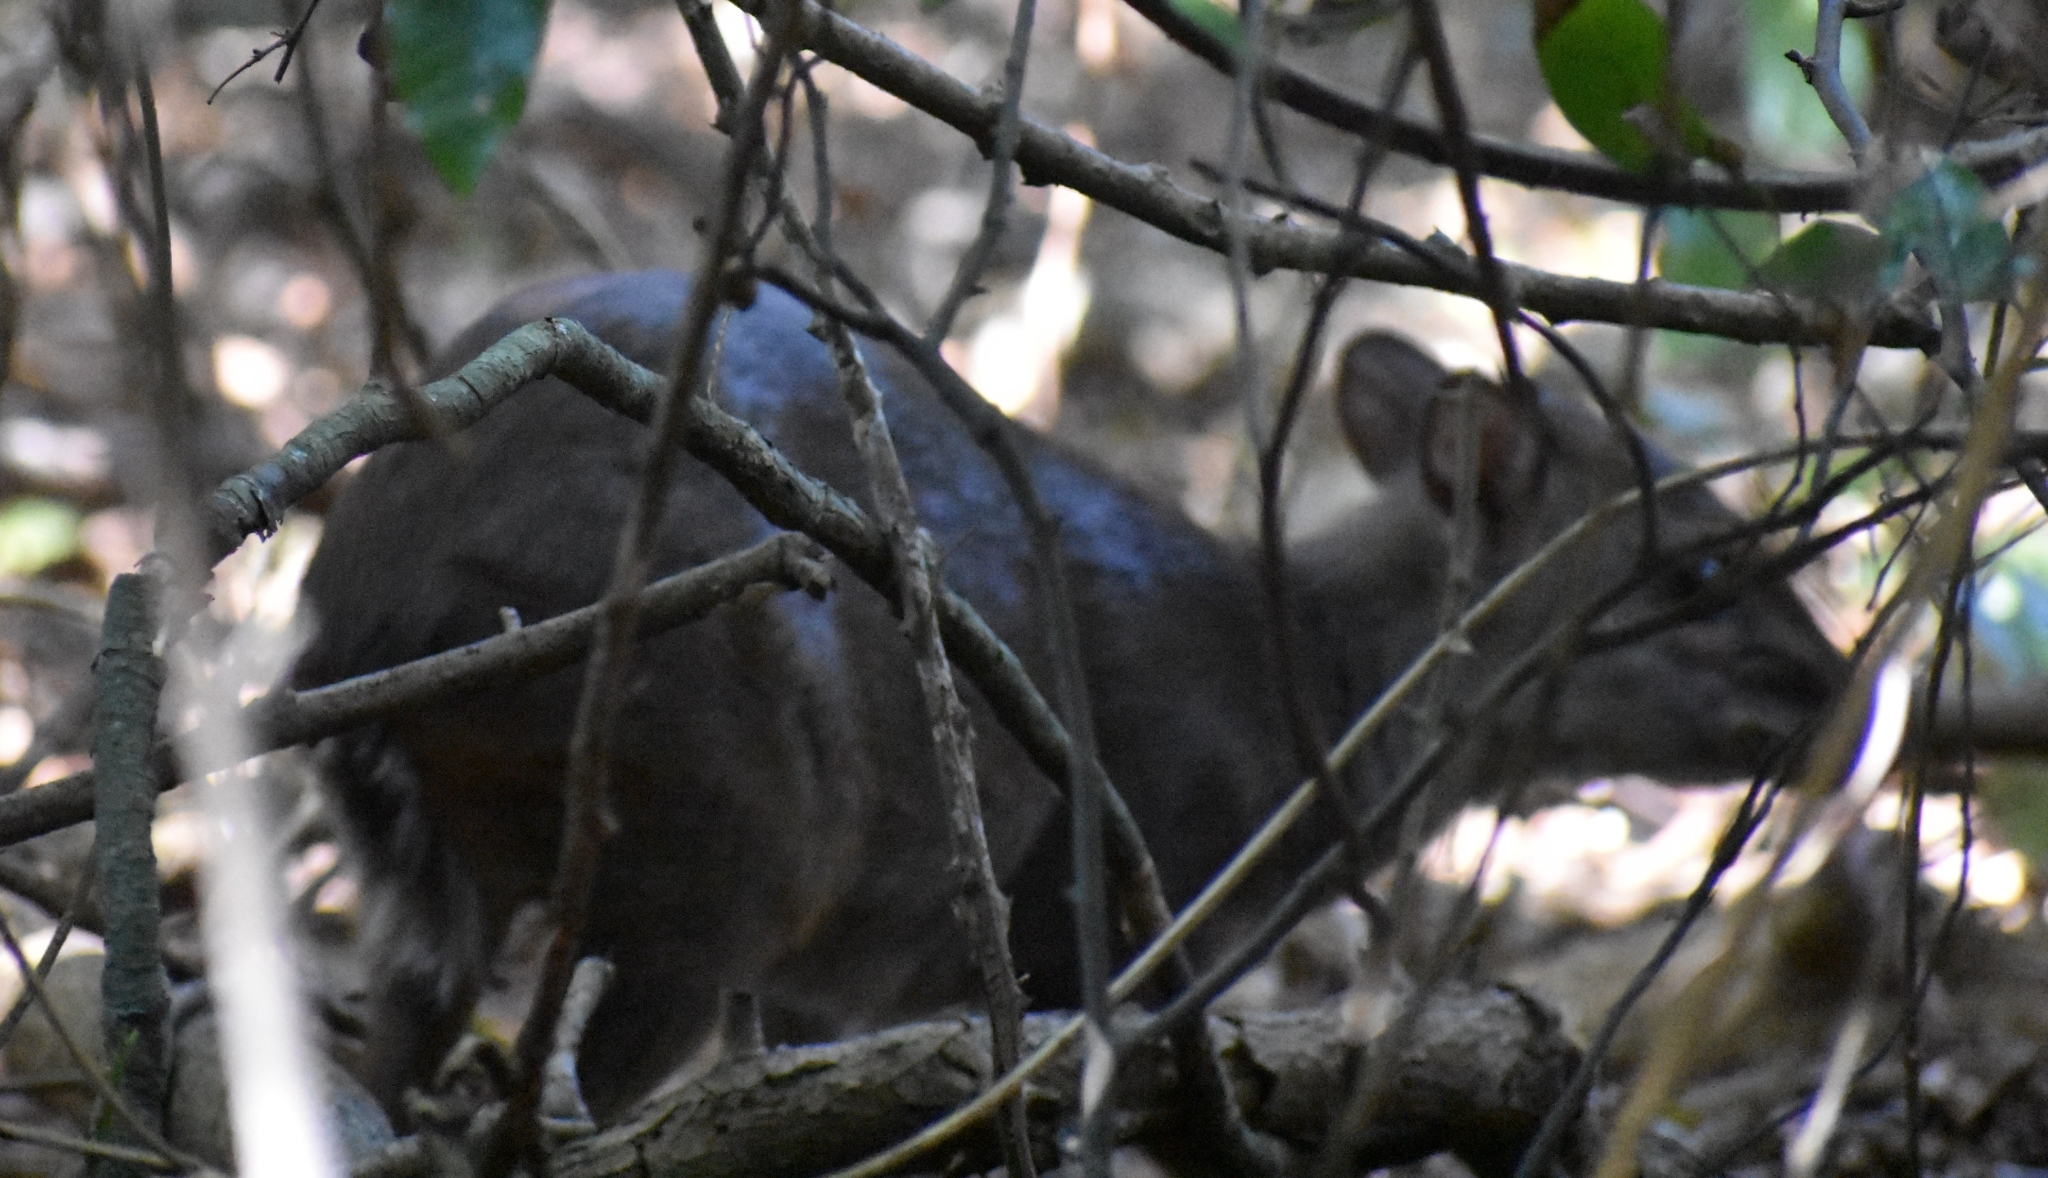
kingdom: Animalia
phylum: Chordata
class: Mammalia
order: Artiodactyla
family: Bovidae
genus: Philantomba
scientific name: Philantomba monticola
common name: Blue duiker
